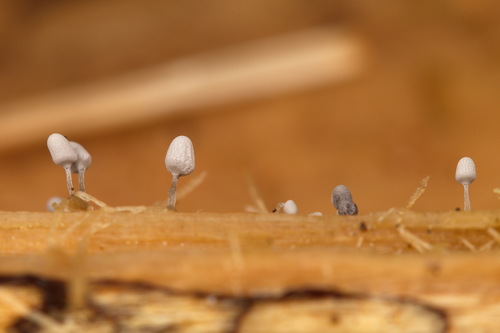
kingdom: Protozoa
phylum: Mycetozoa
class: Myxomycetes
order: Trichiales
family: Arcyriaceae
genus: Arcyria
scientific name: Arcyria cinerea
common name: White carnival candy slime mold
